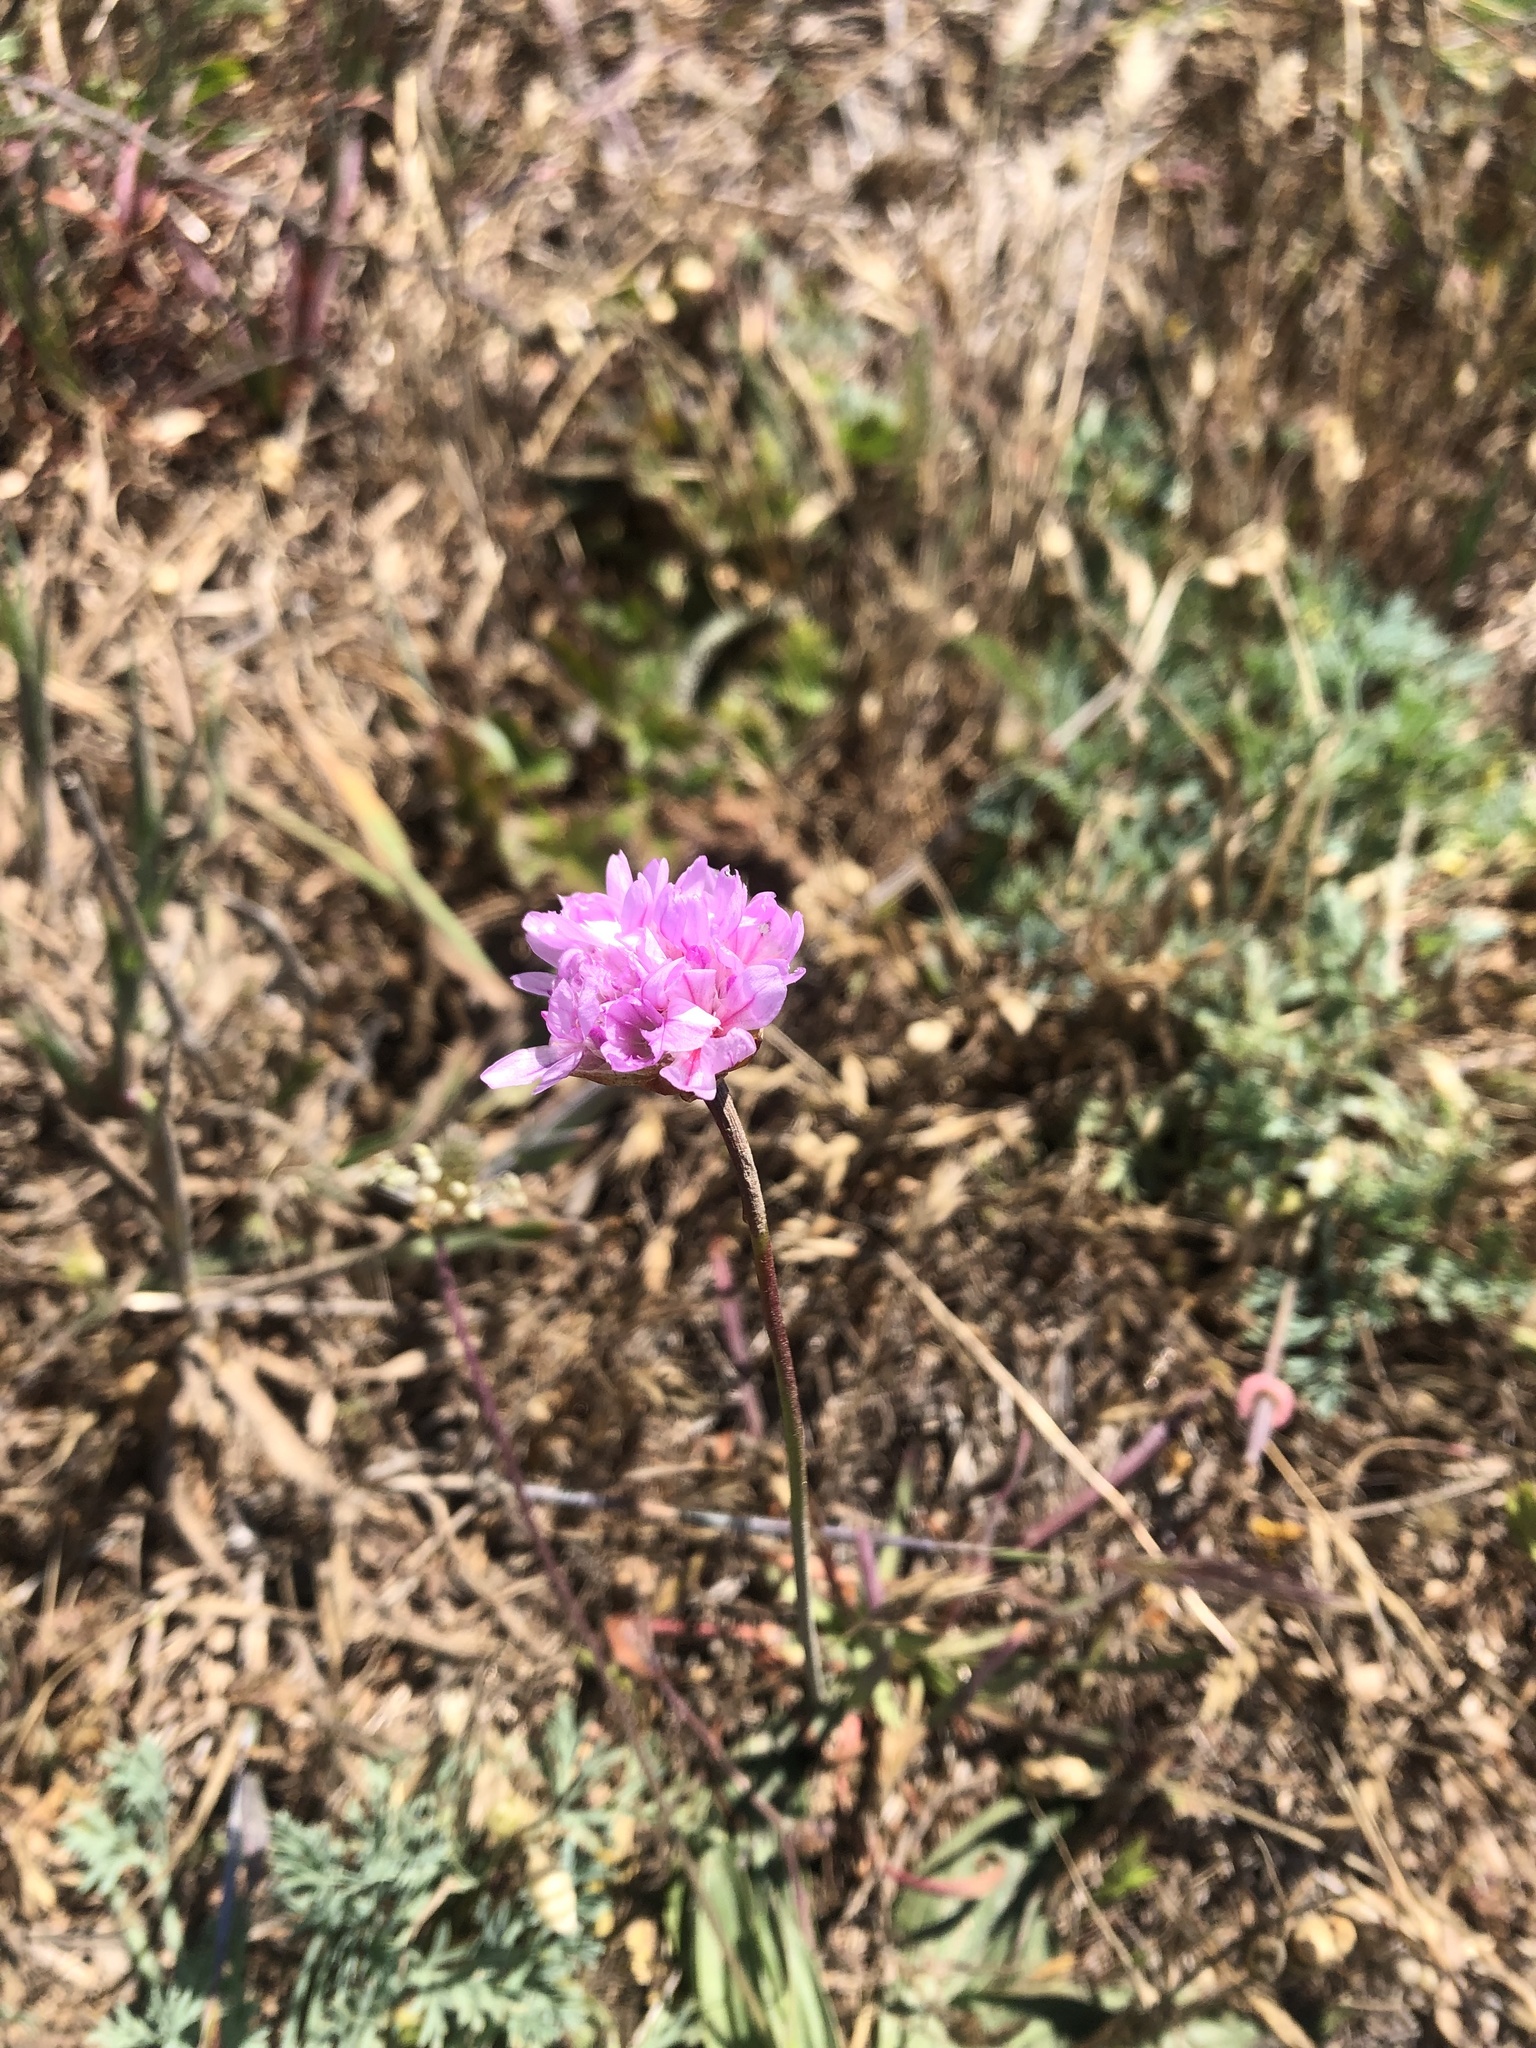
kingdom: Plantae
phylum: Tracheophyta
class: Magnoliopsida
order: Caryophyllales
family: Plumbaginaceae
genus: Armeria
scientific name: Armeria maritima
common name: Thrift
